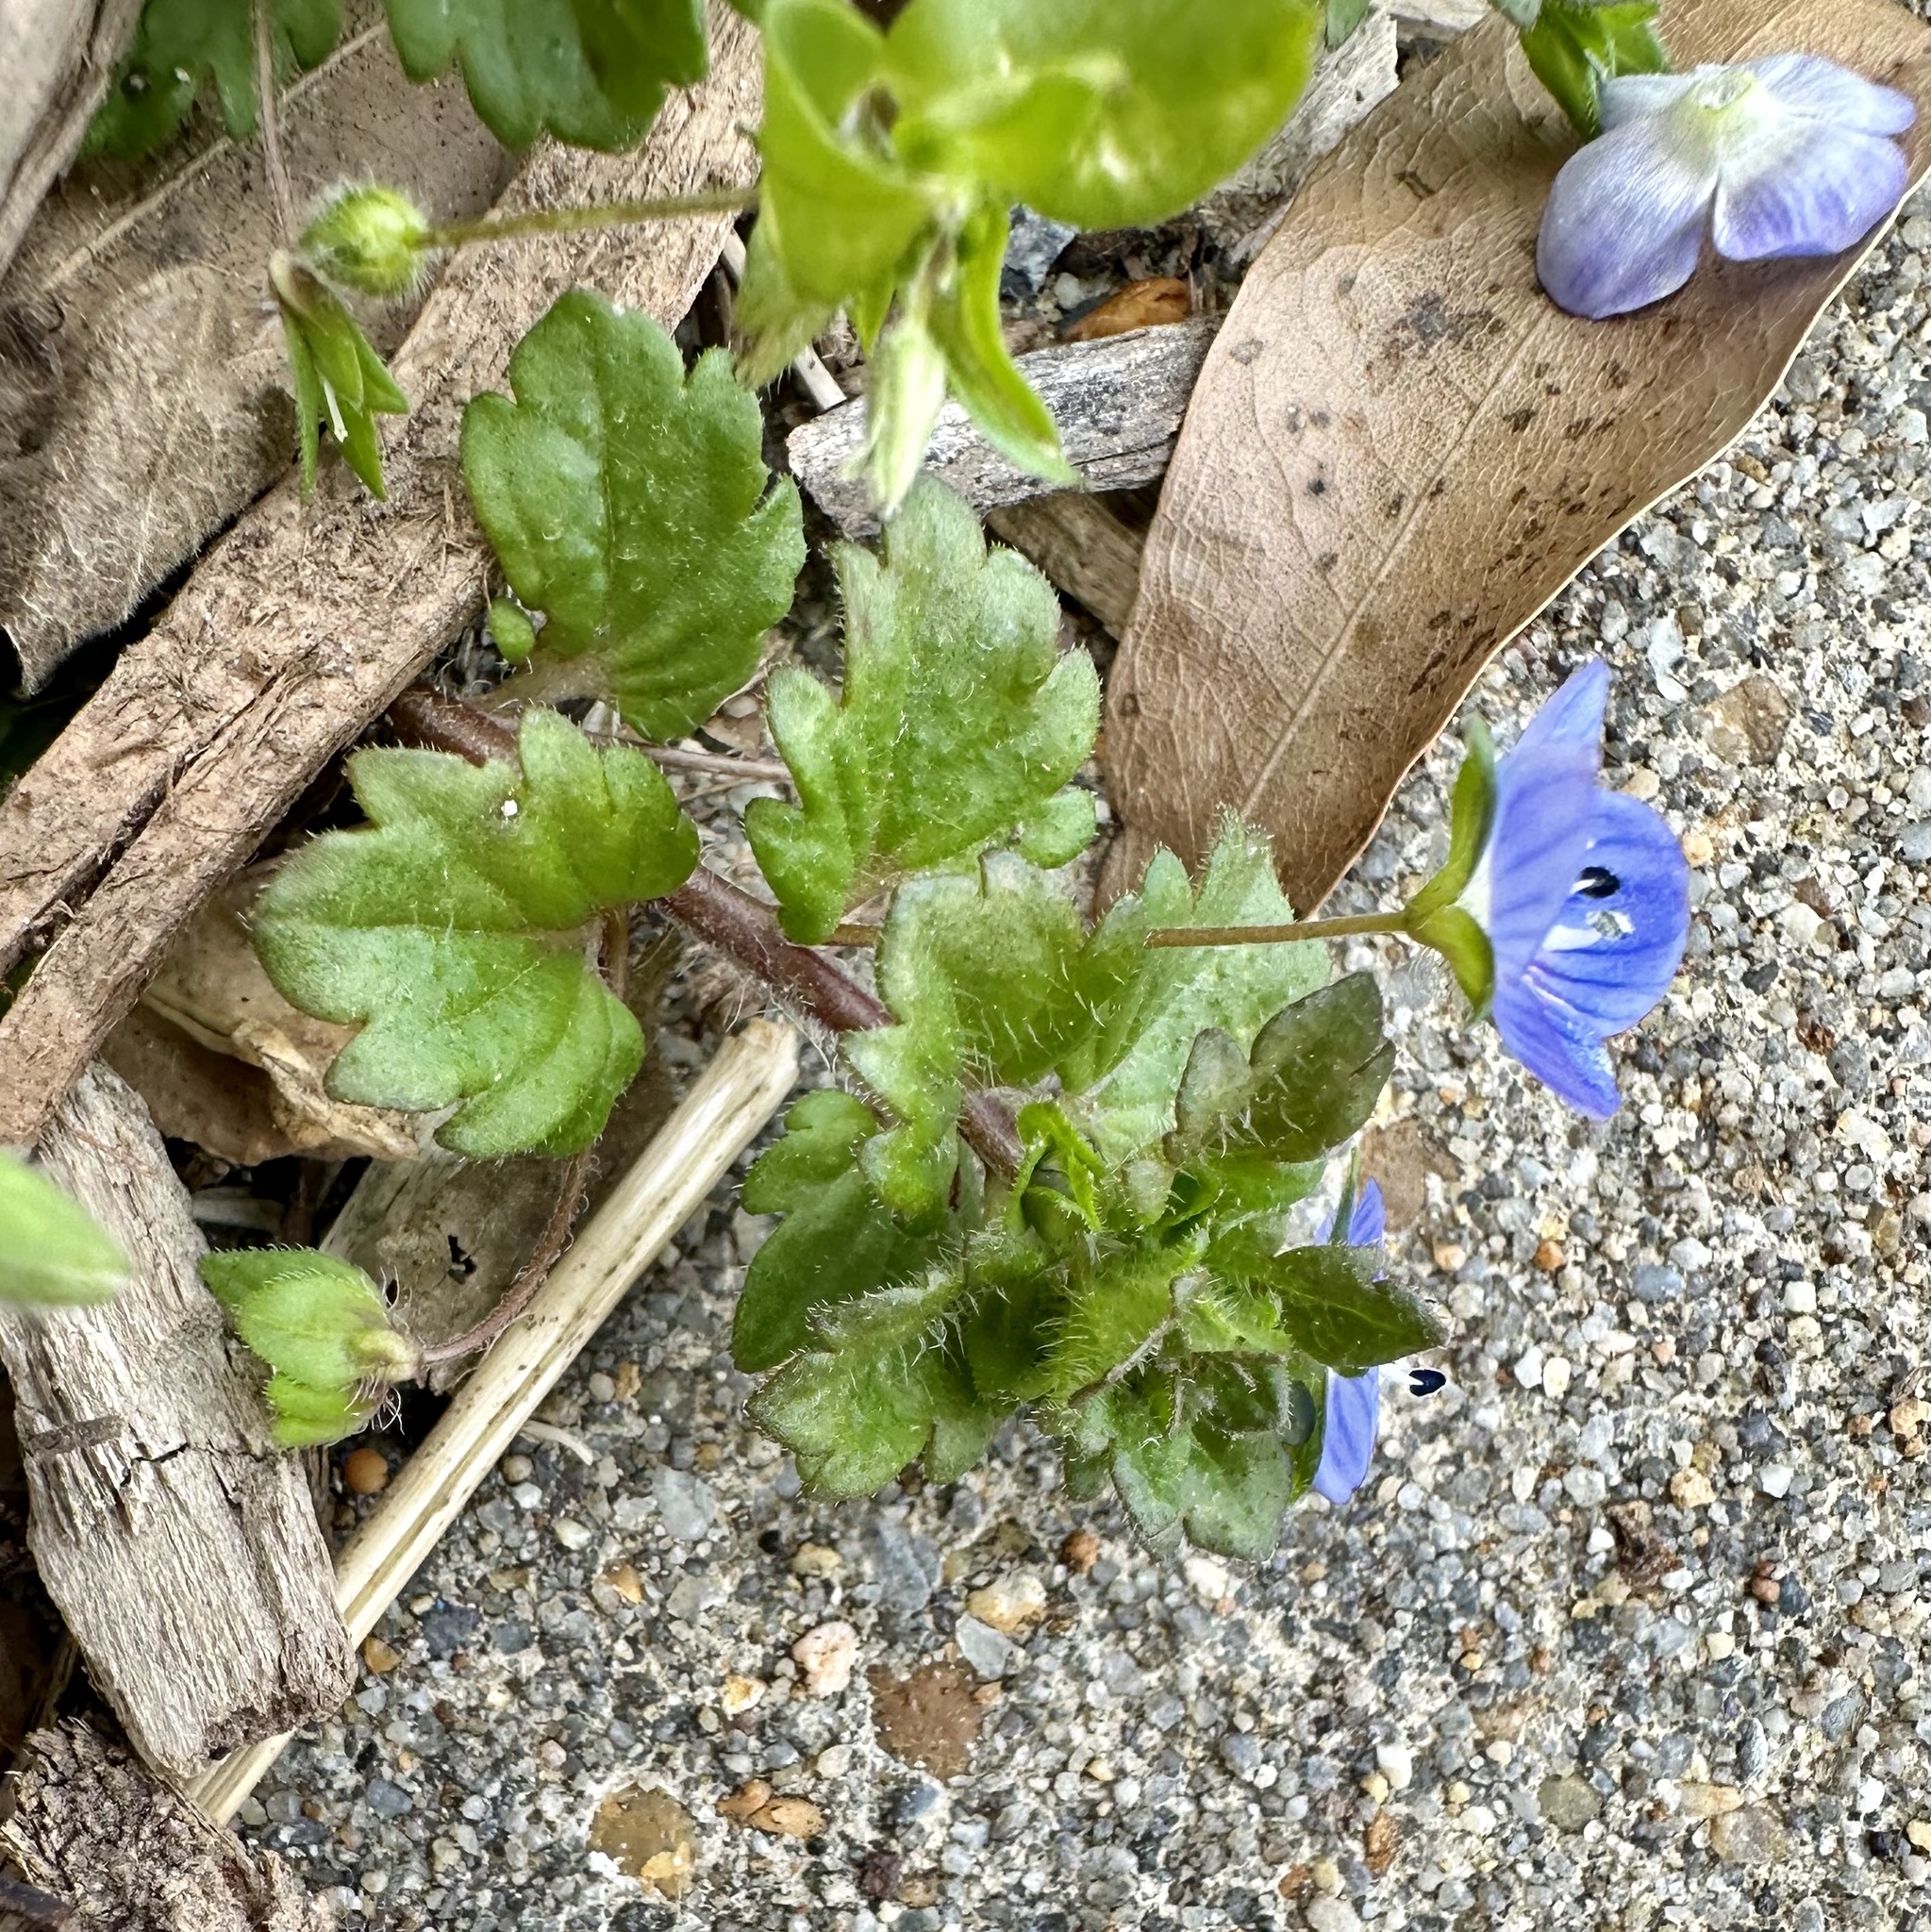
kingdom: Plantae
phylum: Tracheophyta
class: Magnoliopsida
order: Lamiales
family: Plantaginaceae
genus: Veronica
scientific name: Veronica persica
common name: Common field-speedwell
